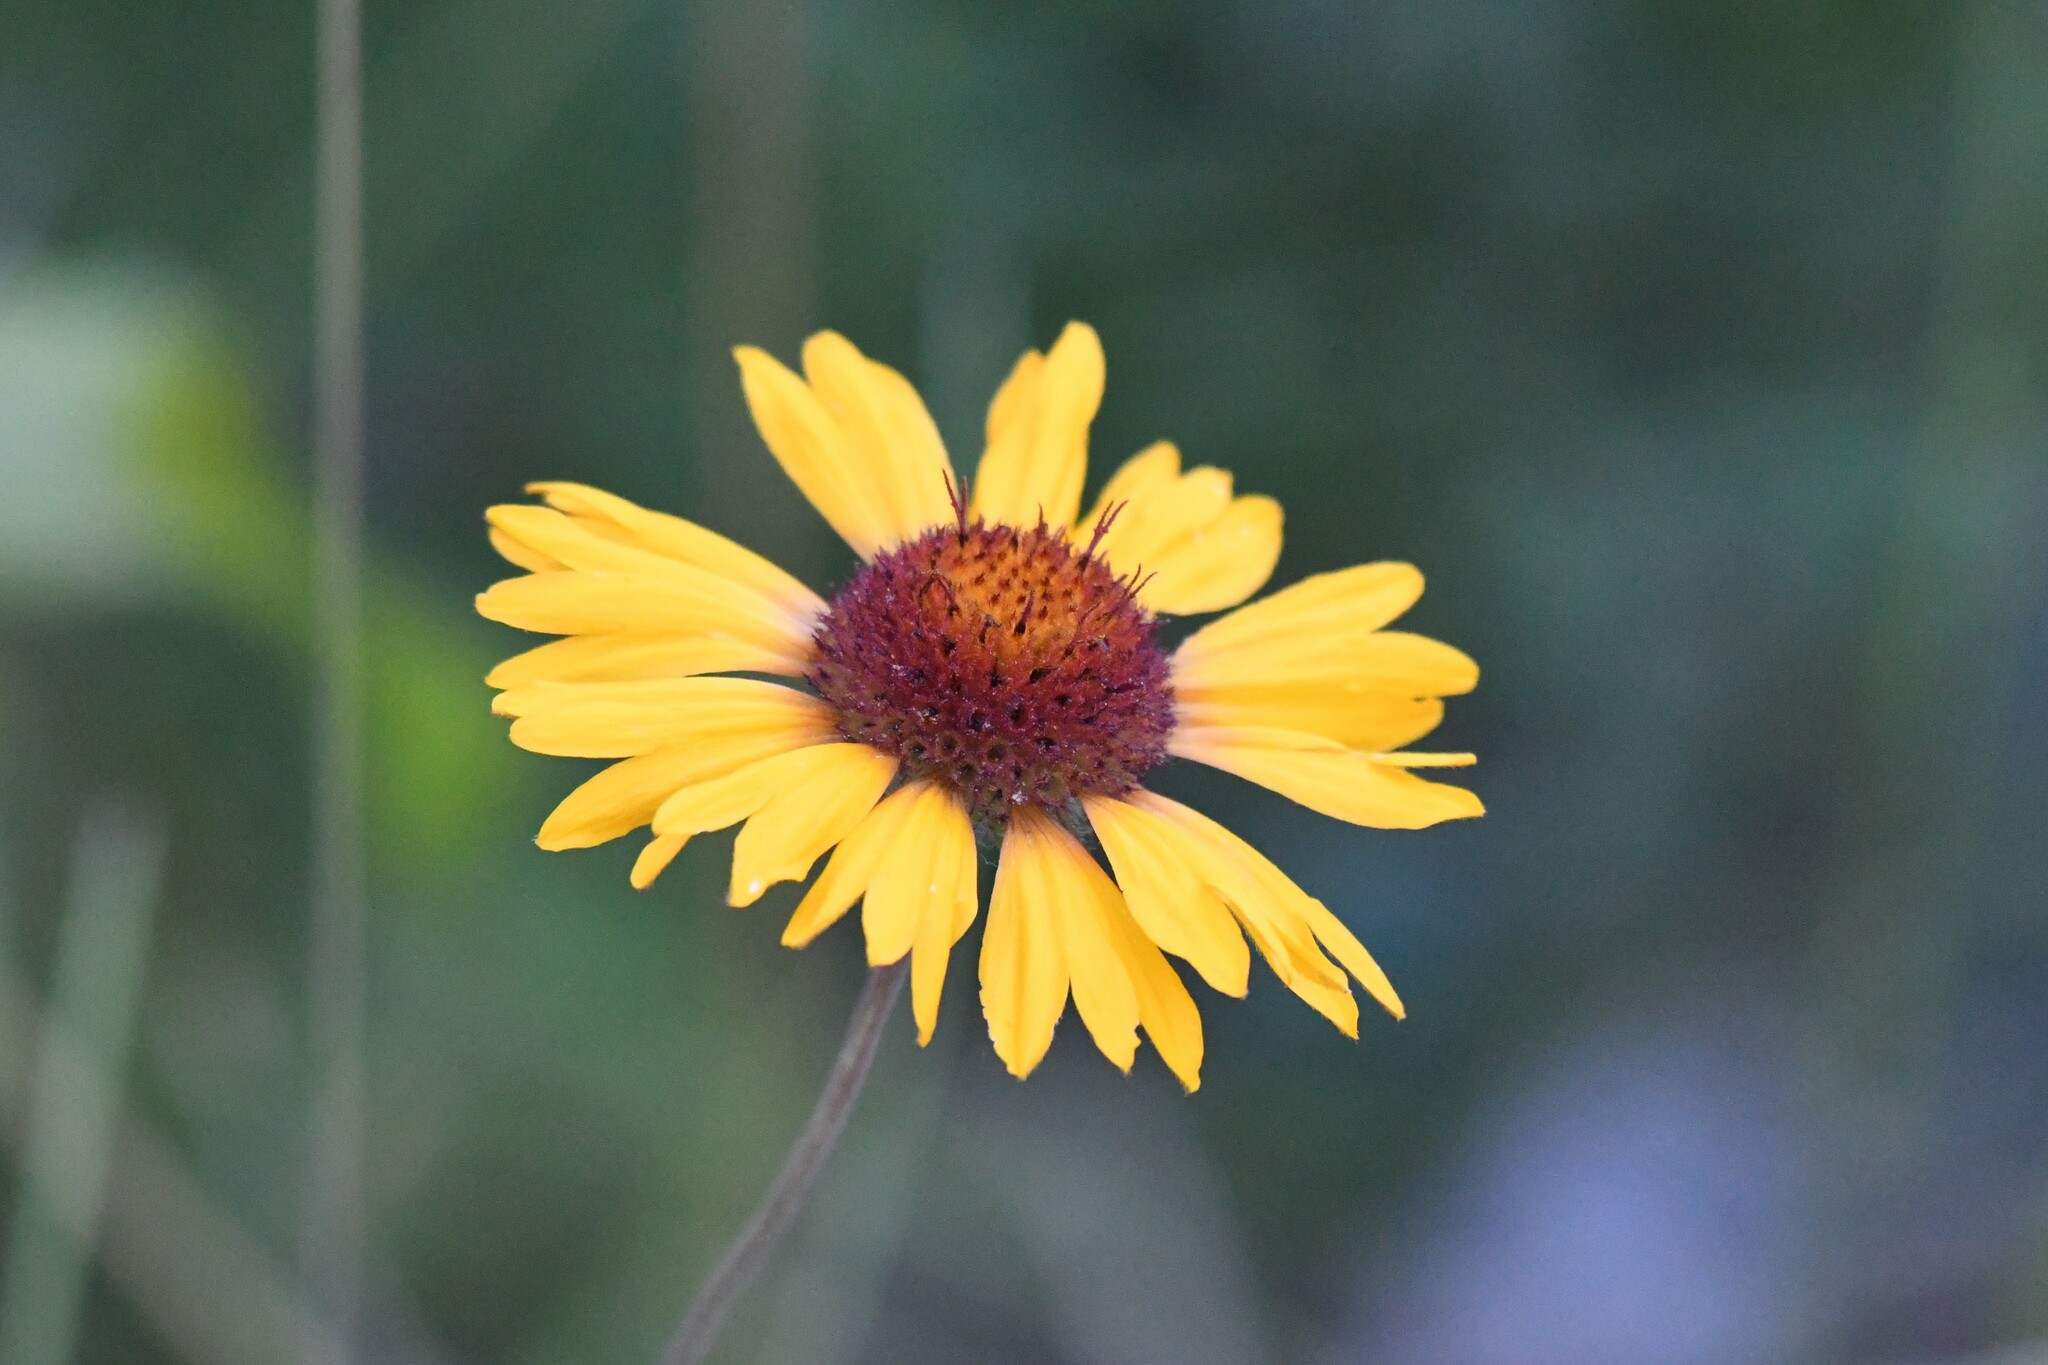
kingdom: Plantae
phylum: Tracheophyta
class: Magnoliopsida
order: Asterales
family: Asteraceae
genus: Gaillardia
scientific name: Gaillardia aristata
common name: Blanket-flower
